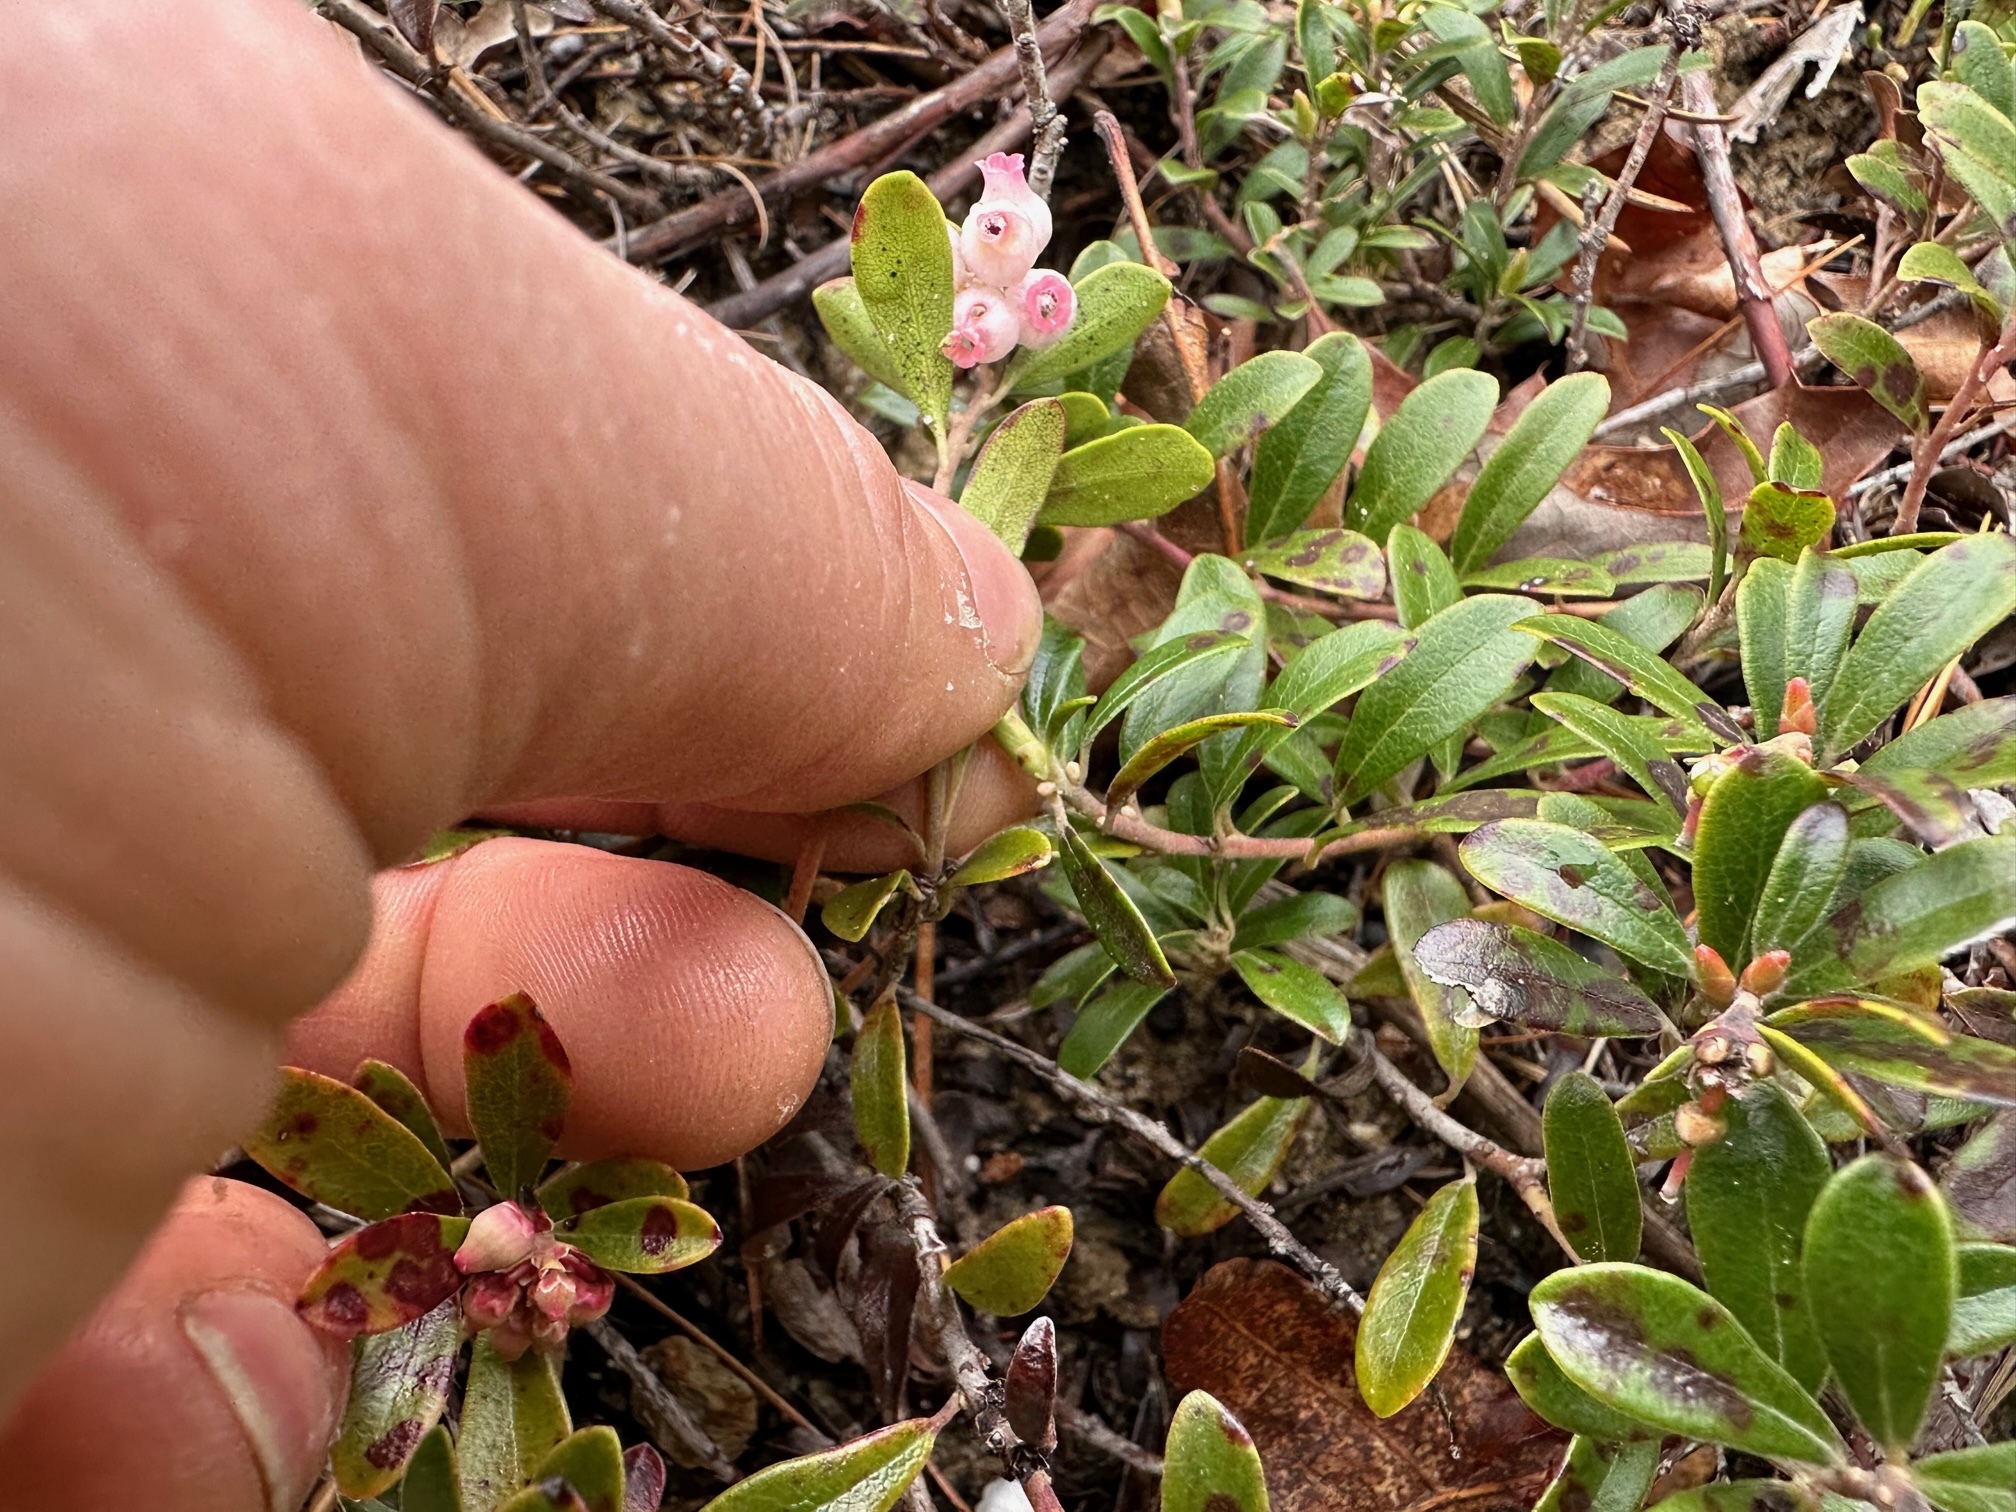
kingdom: Plantae
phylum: Tracheophyta
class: Magnoliopsida
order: Ericales
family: Ericaceae
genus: Arctostaphylos
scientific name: Arctostaphylos uva-ursi
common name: Bearberry
